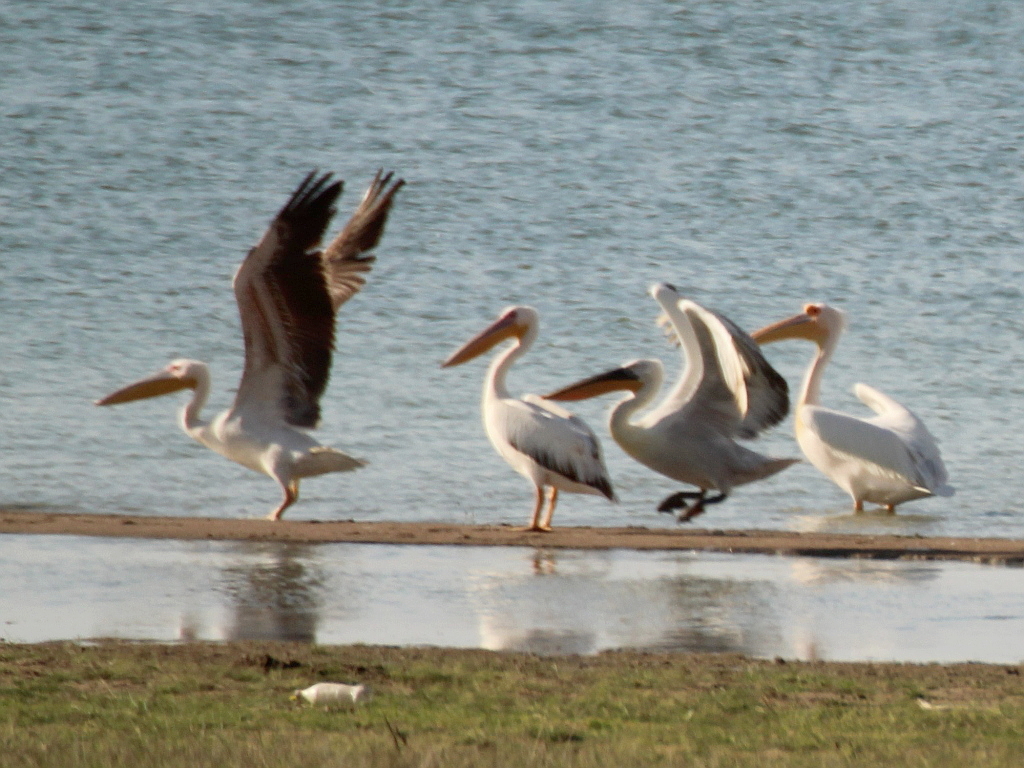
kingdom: Animalia
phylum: Chordata
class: Aves
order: Pelecaniformes
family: Pelecanidae
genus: Pelecanus
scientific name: Pelecanus onocrotalus
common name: Great white pelican
